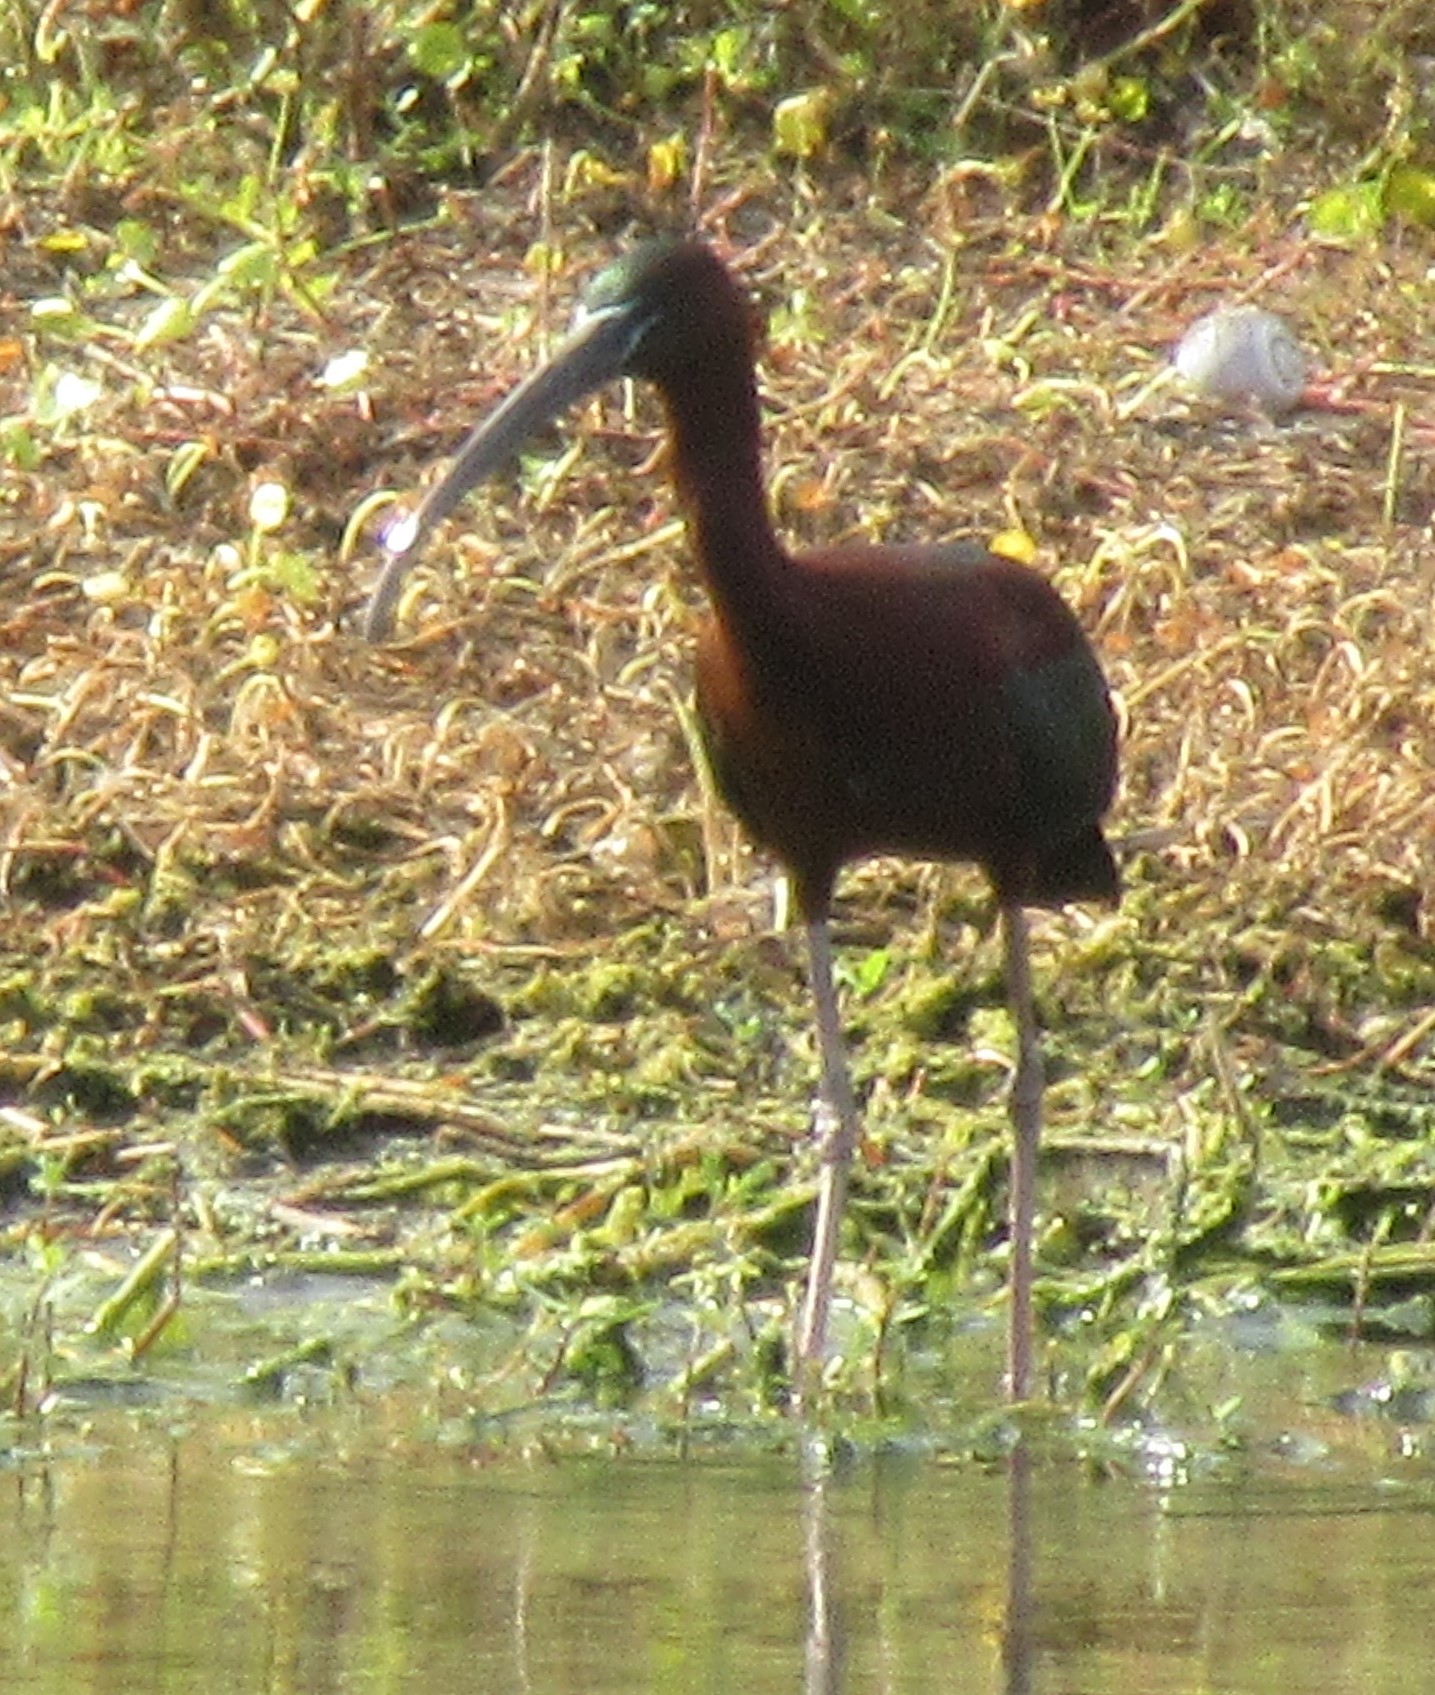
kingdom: Animalia
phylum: Chordata
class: Aves
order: Pelecaniformes
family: Threskiornithidae
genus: Plegadis
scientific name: Plegadis falcinellus
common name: Glossy ibis
